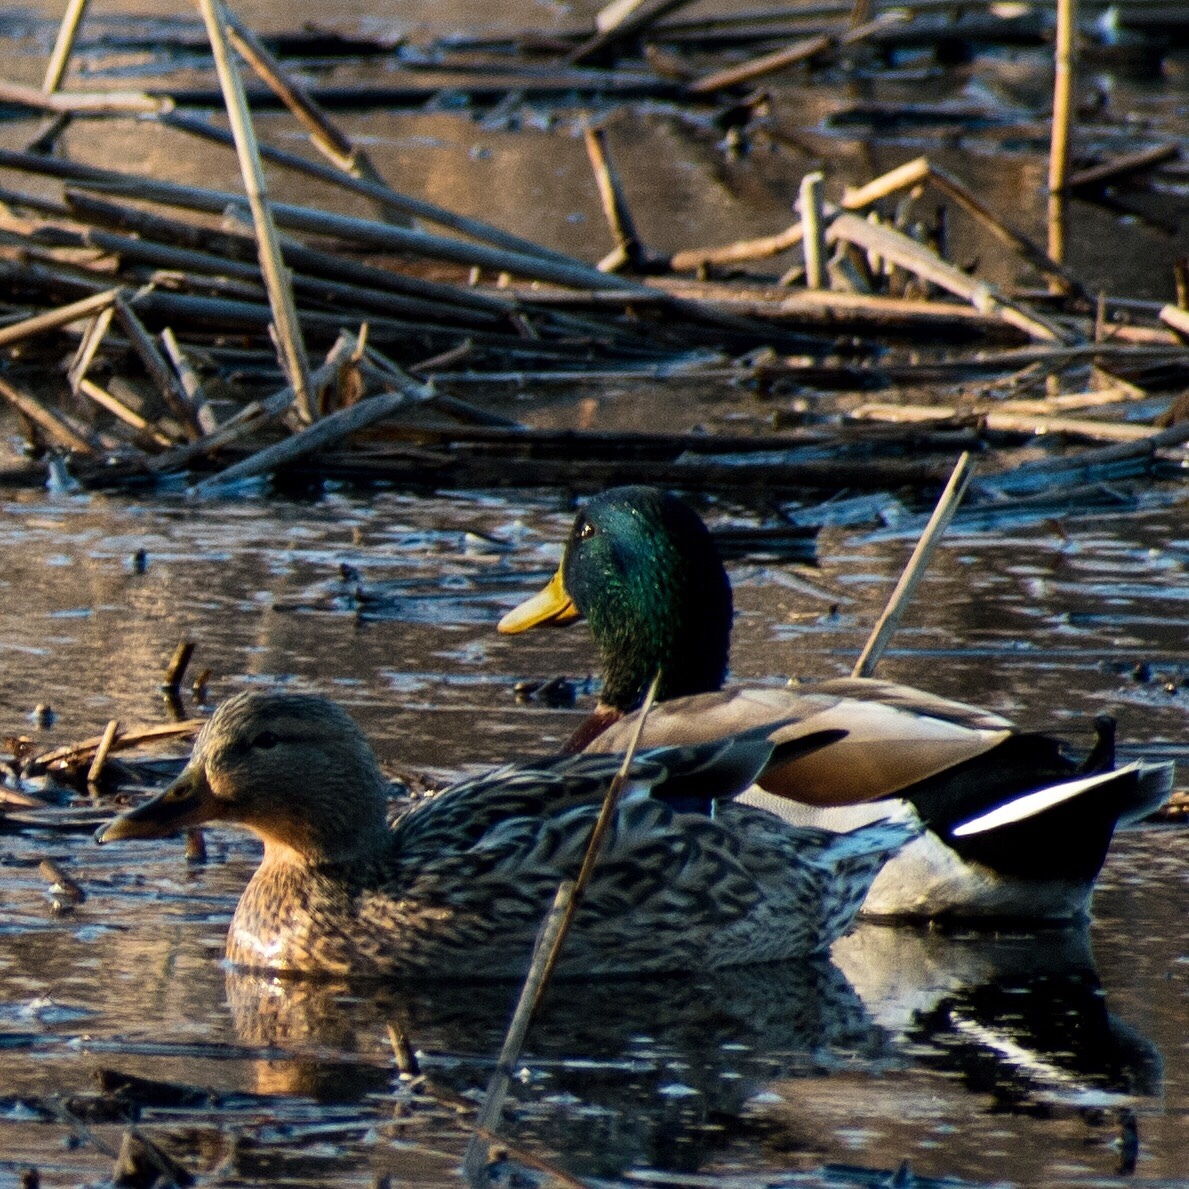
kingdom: Animalia
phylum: Chordata
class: Aves
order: Anseriformes
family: Anatidae
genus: Anas
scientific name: Anas platyrhynchos
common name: Mallard
